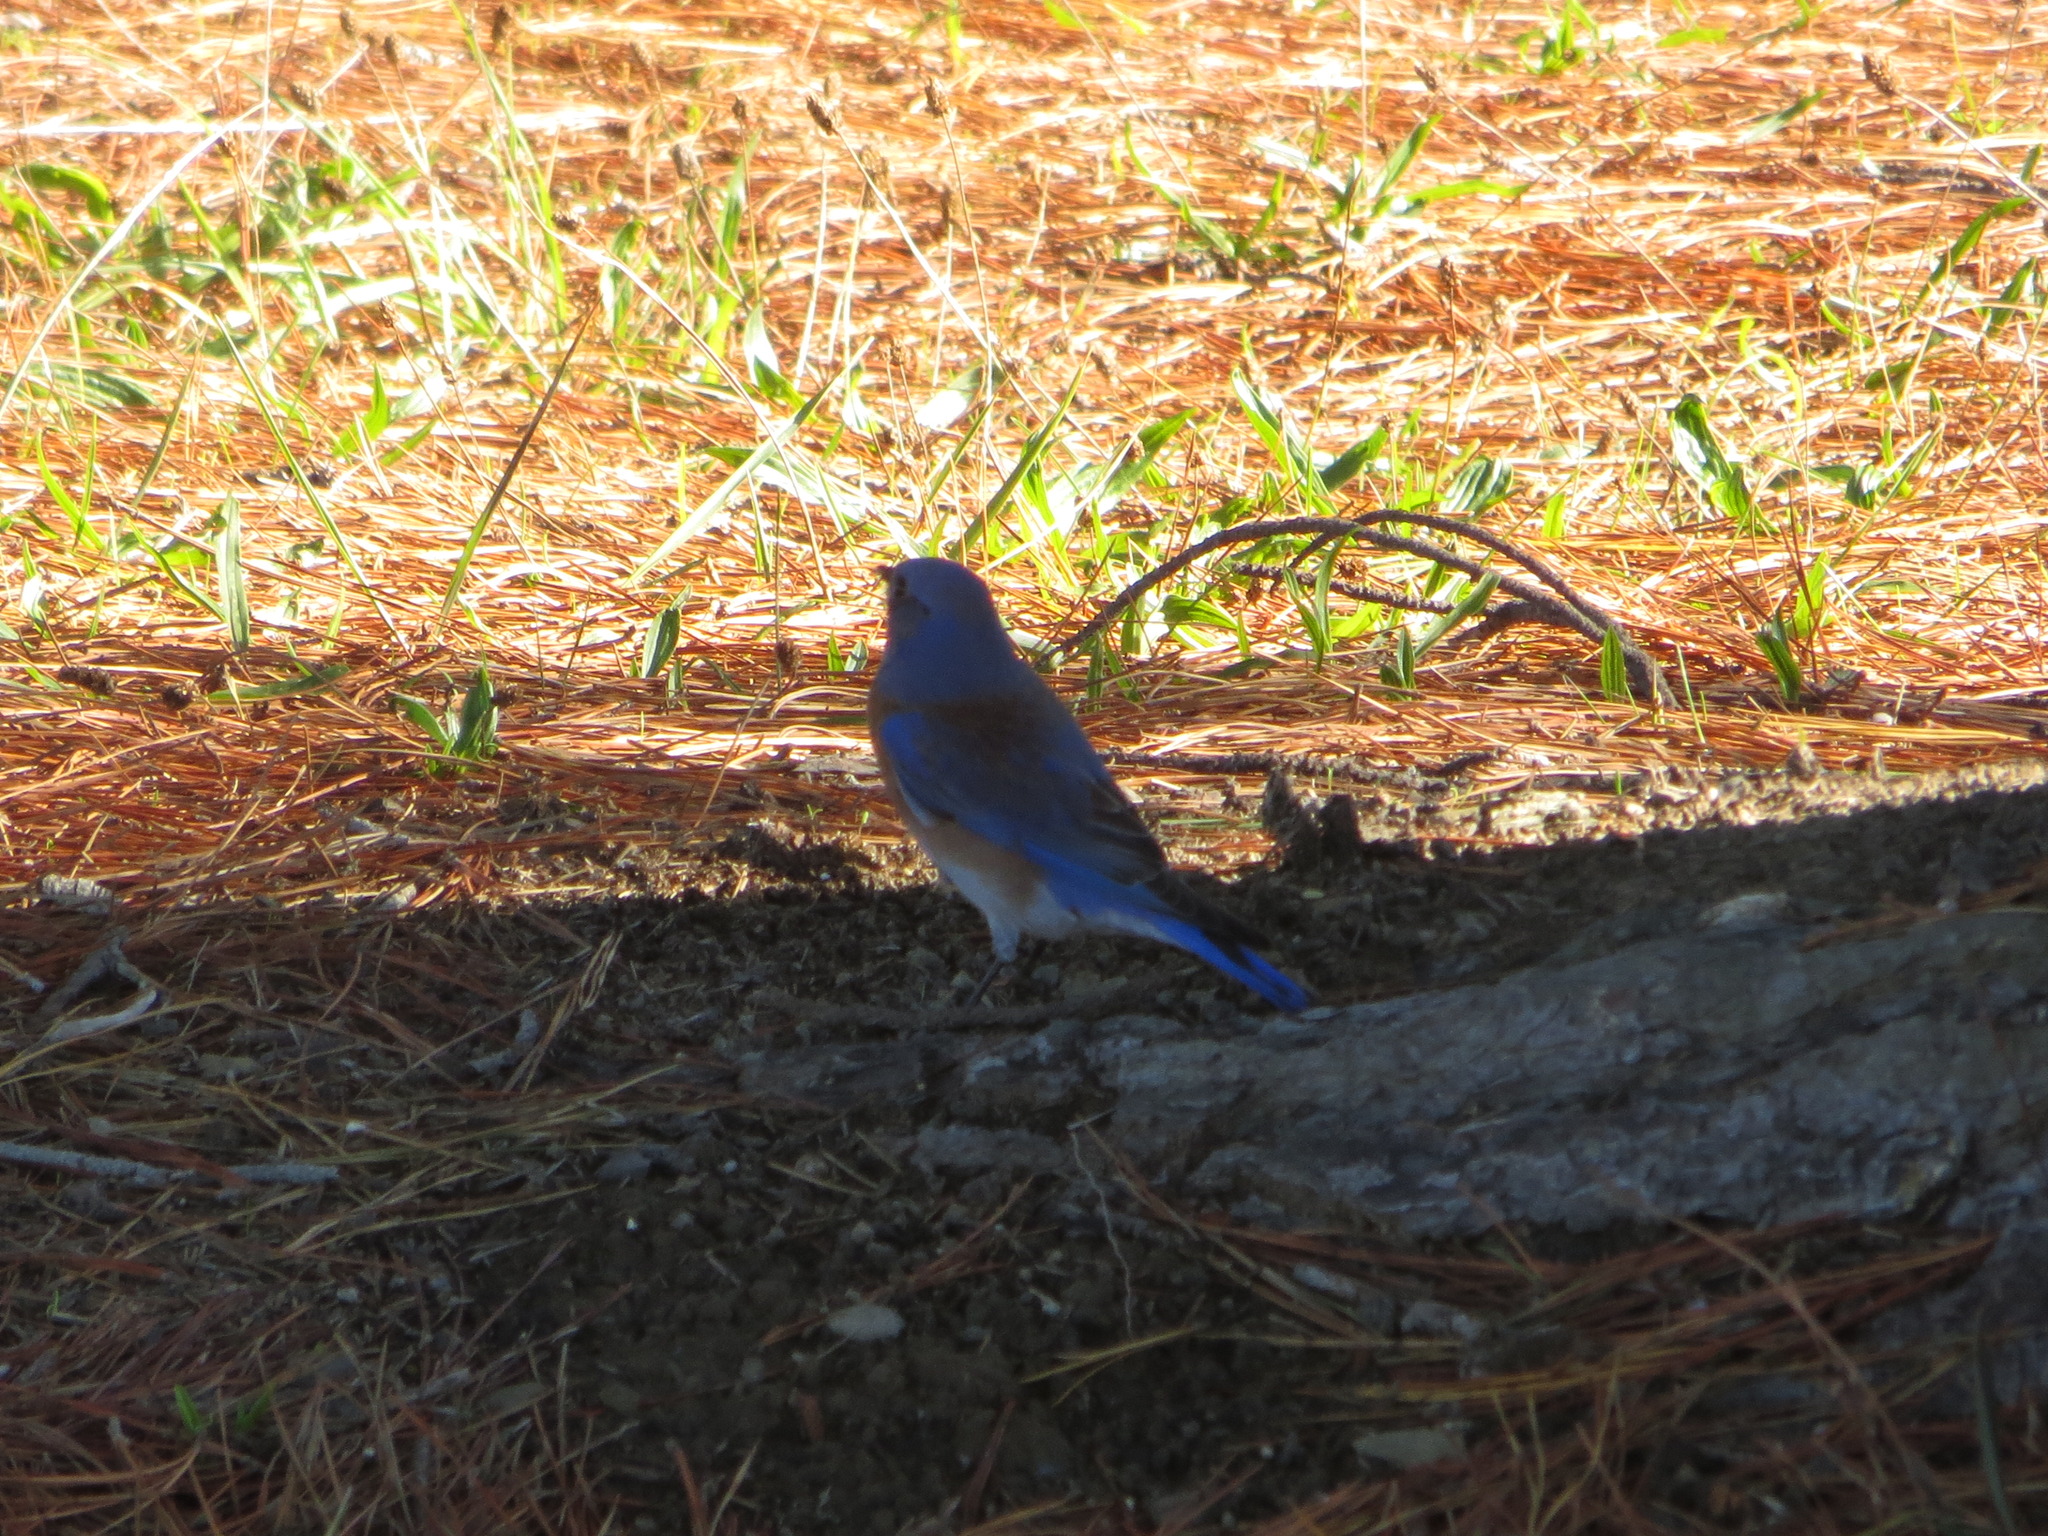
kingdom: Animalia
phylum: Chordata
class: Aves
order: Passeriformes
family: Turdidae
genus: Sialia
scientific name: Sialia mexicana
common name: Western bluebird
